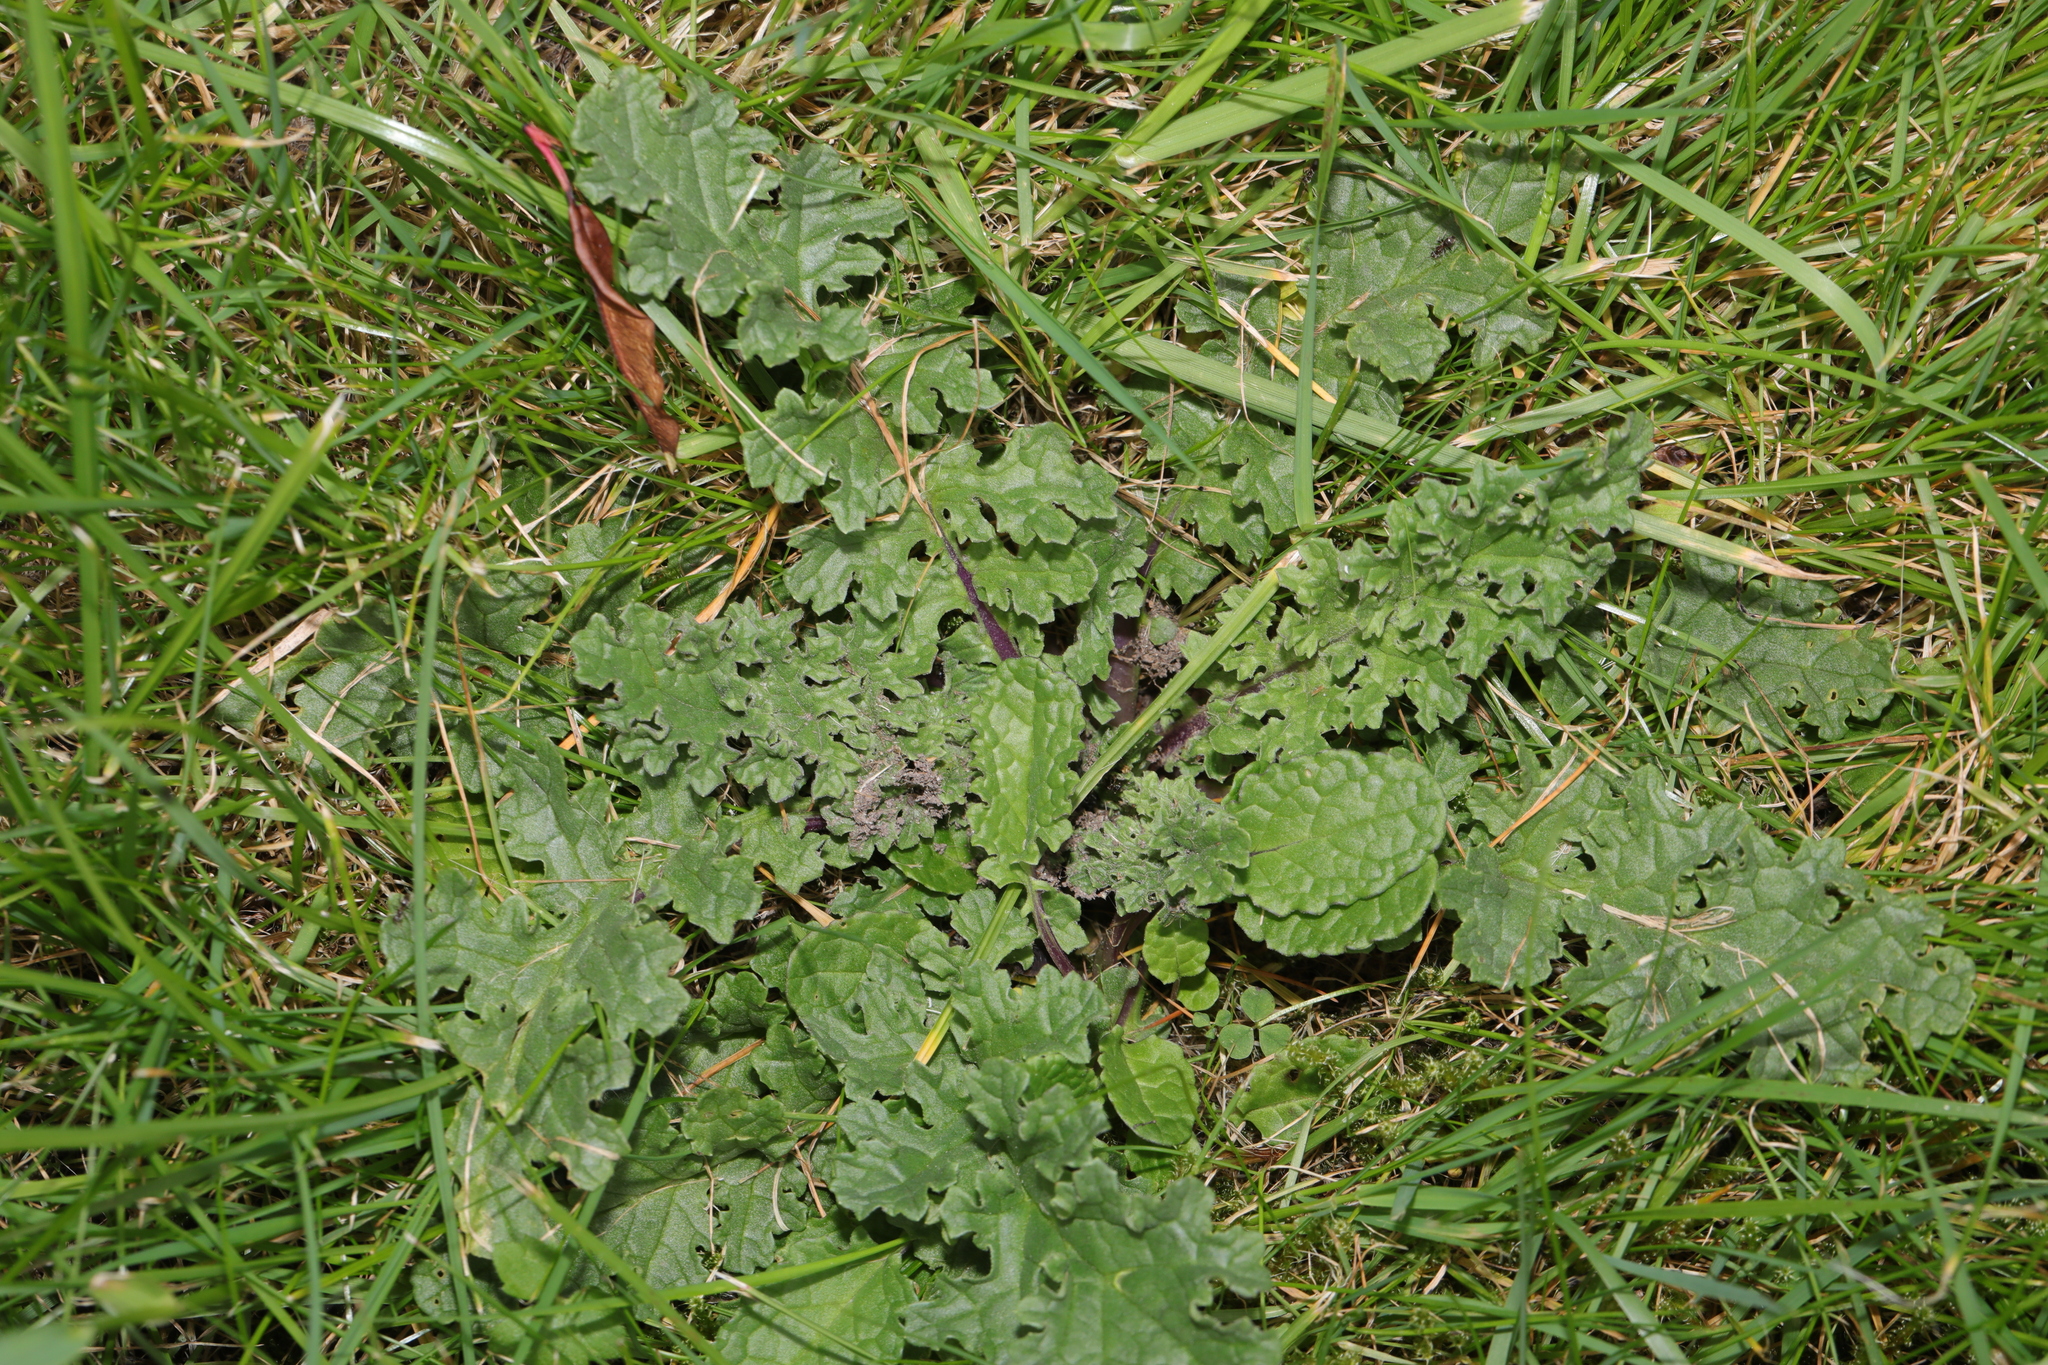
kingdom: Plantae
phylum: Tracheophyta
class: Magnoliopsida
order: Asterales
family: Asteraceae
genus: Jacobaea
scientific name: Jacobaea vulgaris
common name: Stinking willie
